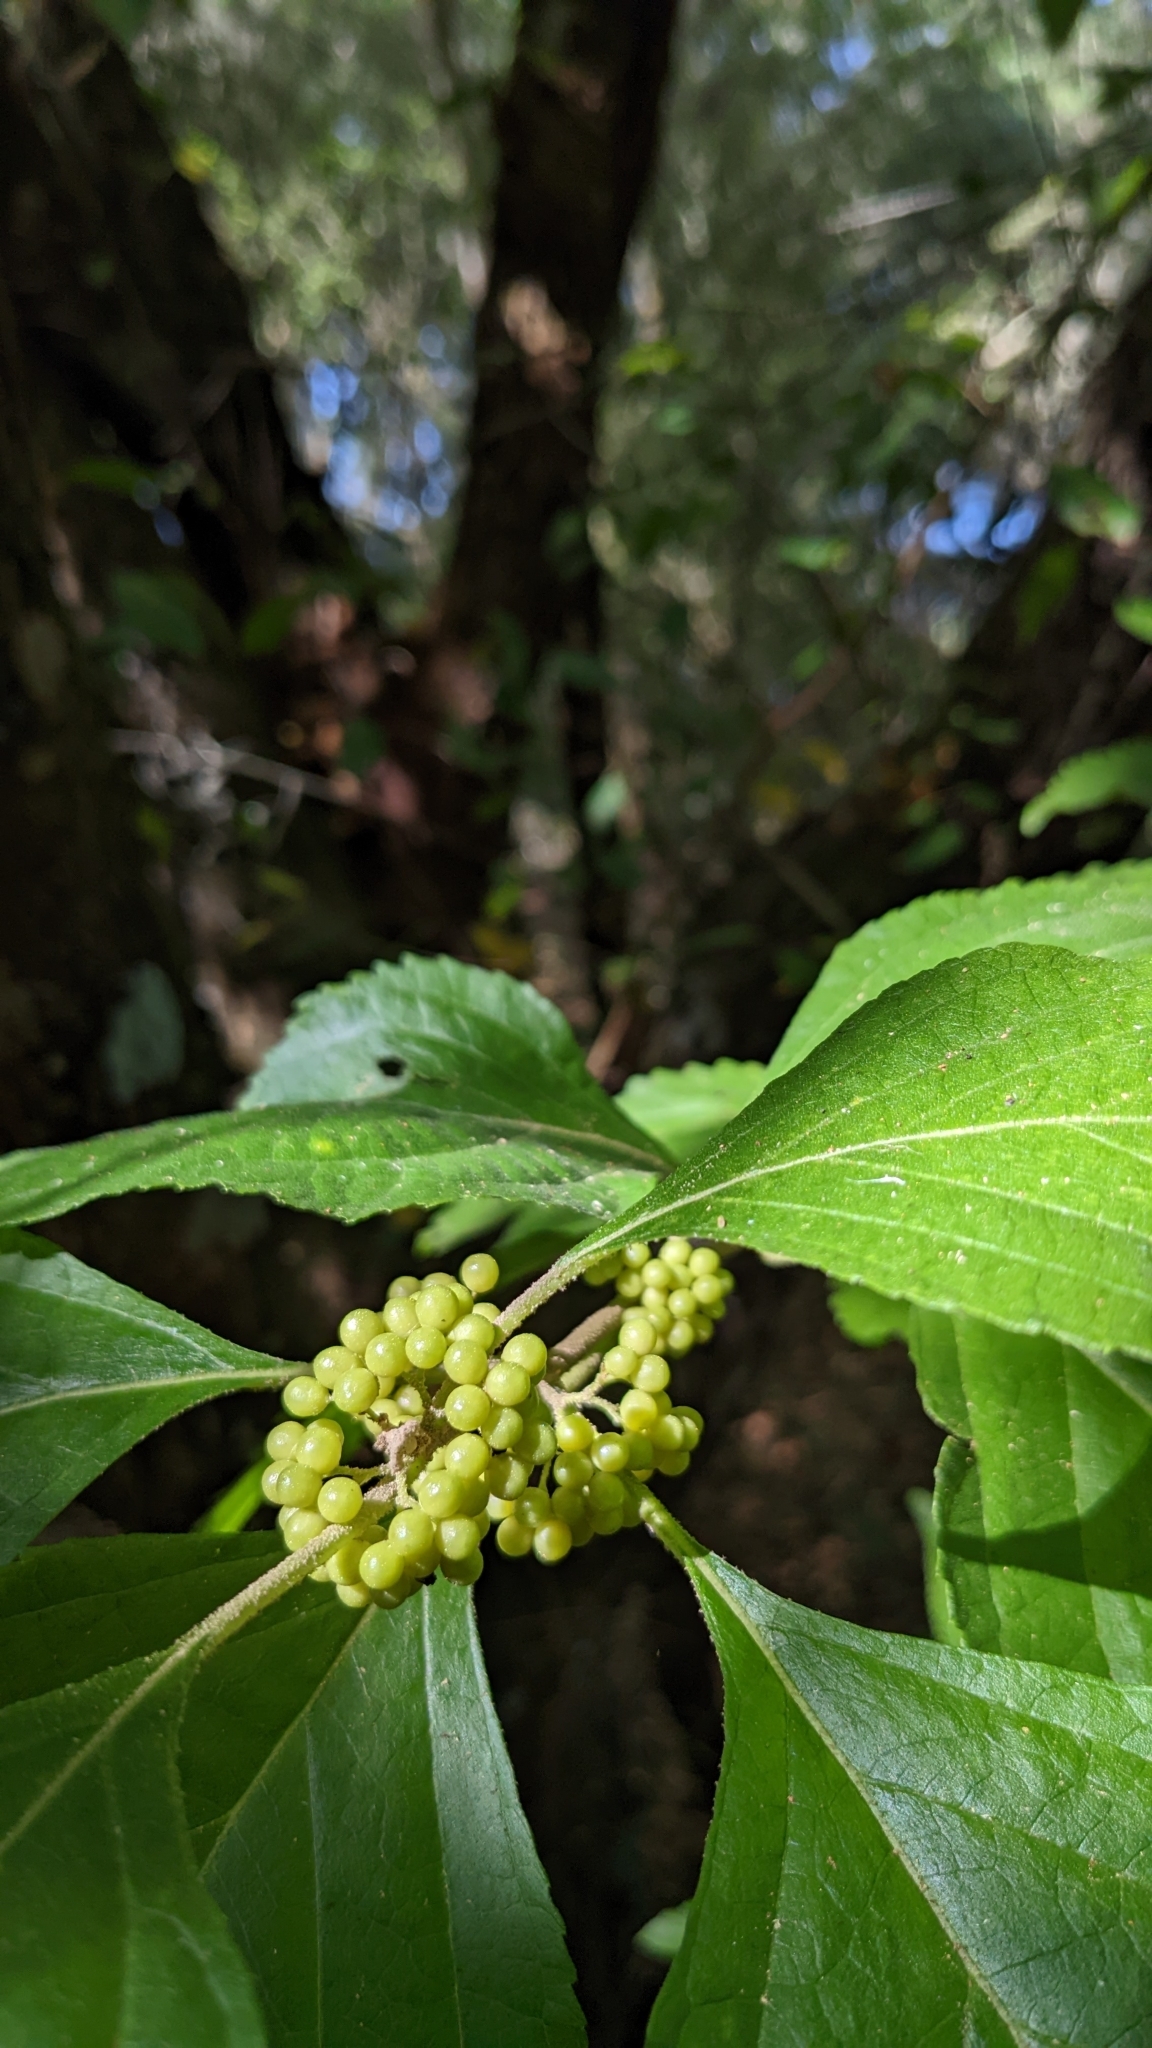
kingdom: Plantae
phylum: Tracheophyta
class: Magnoliopsida
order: Lamiales
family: Lamiaceae
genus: Callicarpa
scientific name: Callicarpa americana
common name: American beautyberry
